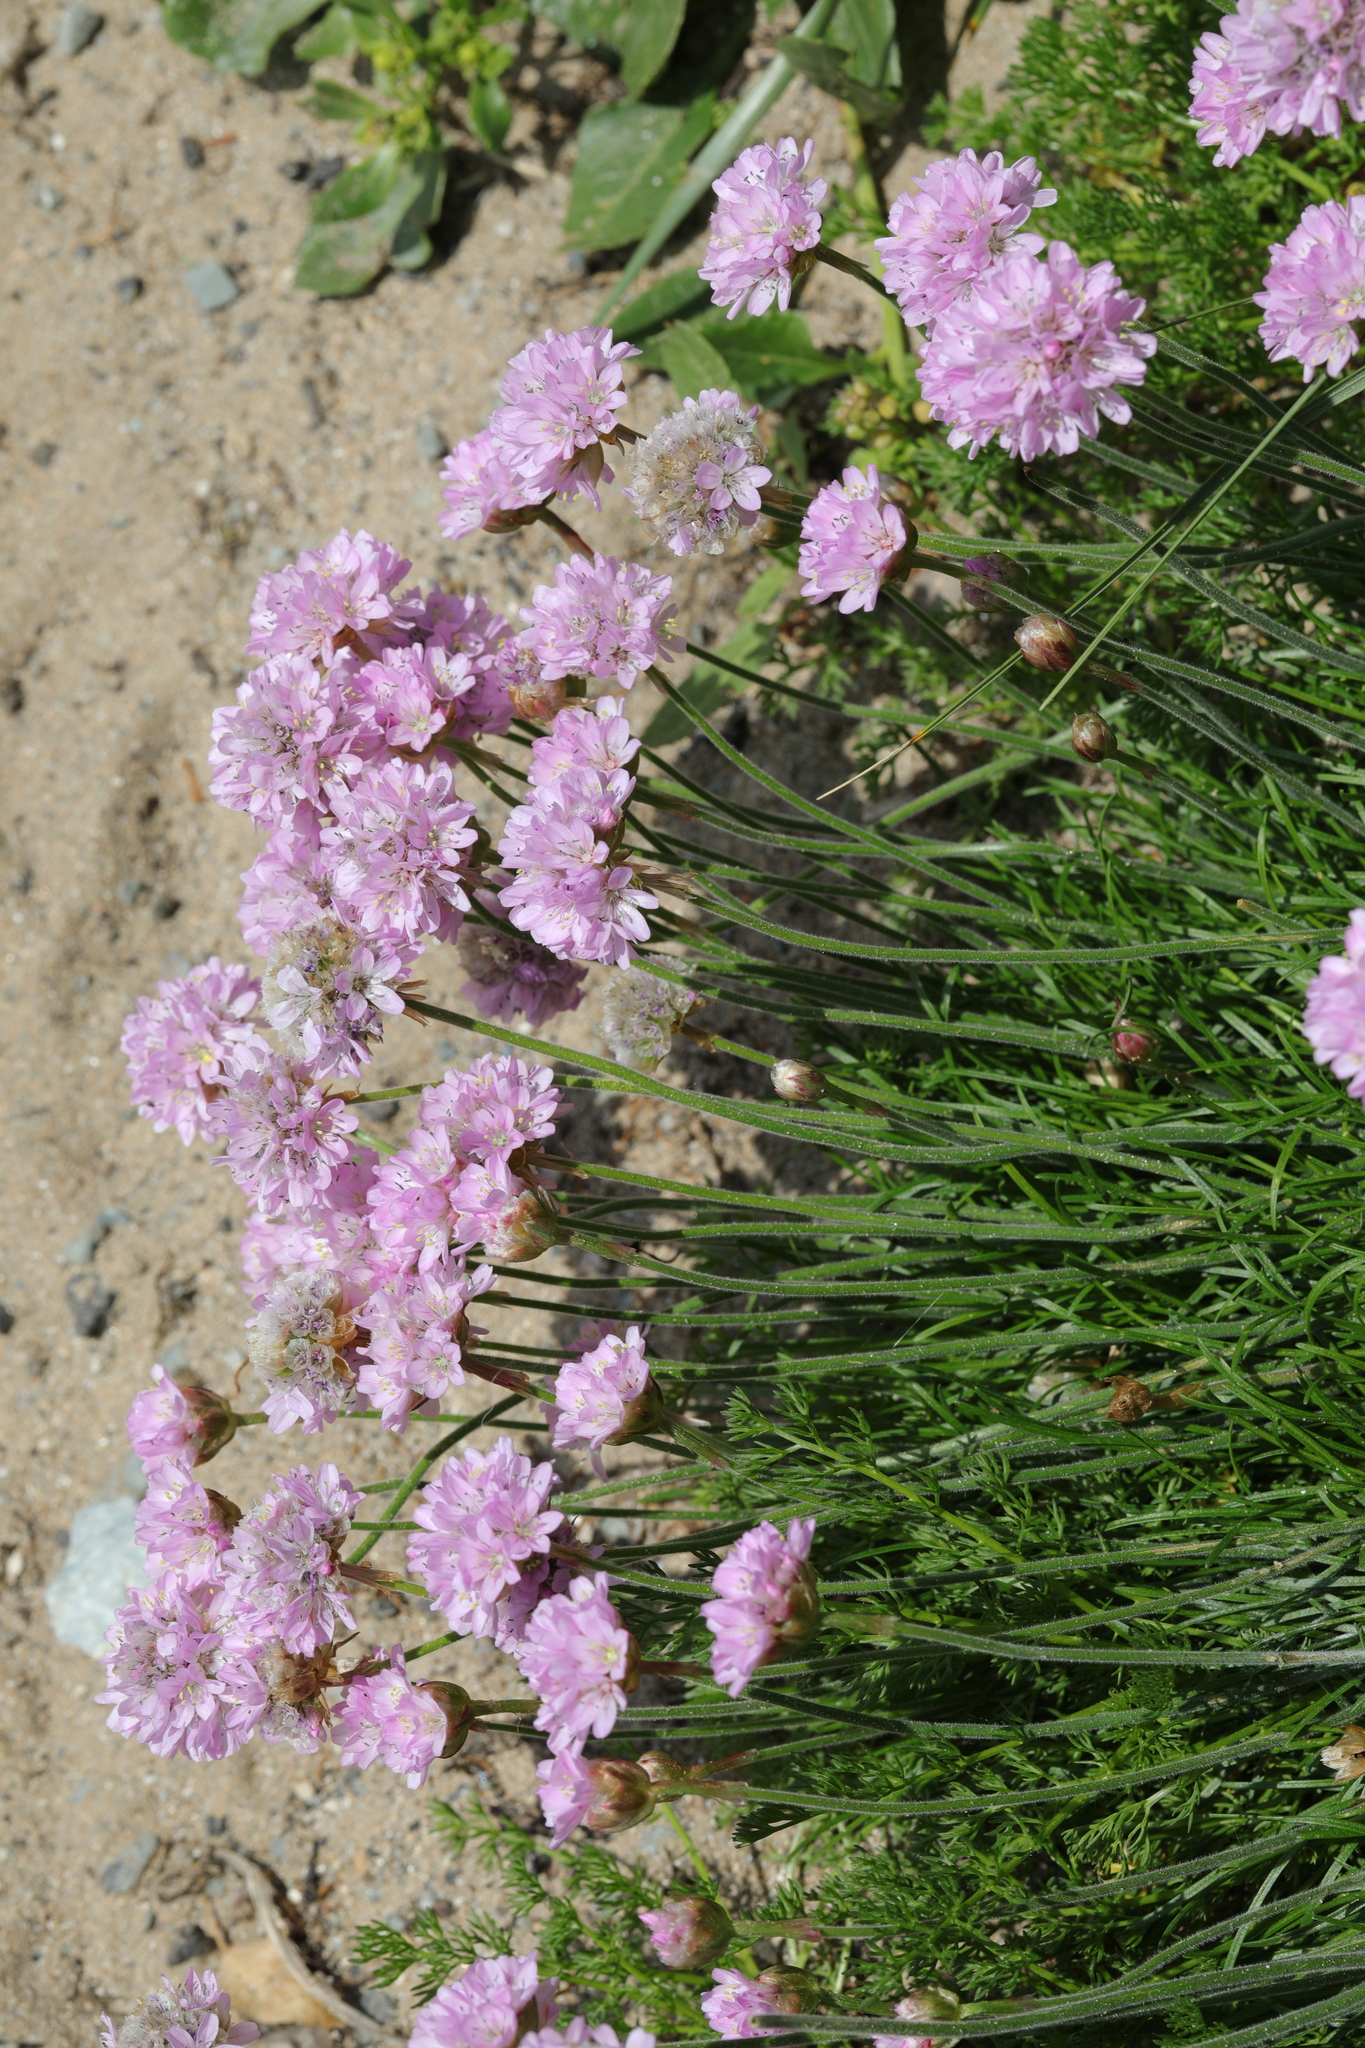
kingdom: Plantae
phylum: Tracheophyta
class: Magnoliopsida
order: Caryophyllales
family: Plumbaginaceae
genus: Armeria
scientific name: Armeria maritima
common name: Thrift
